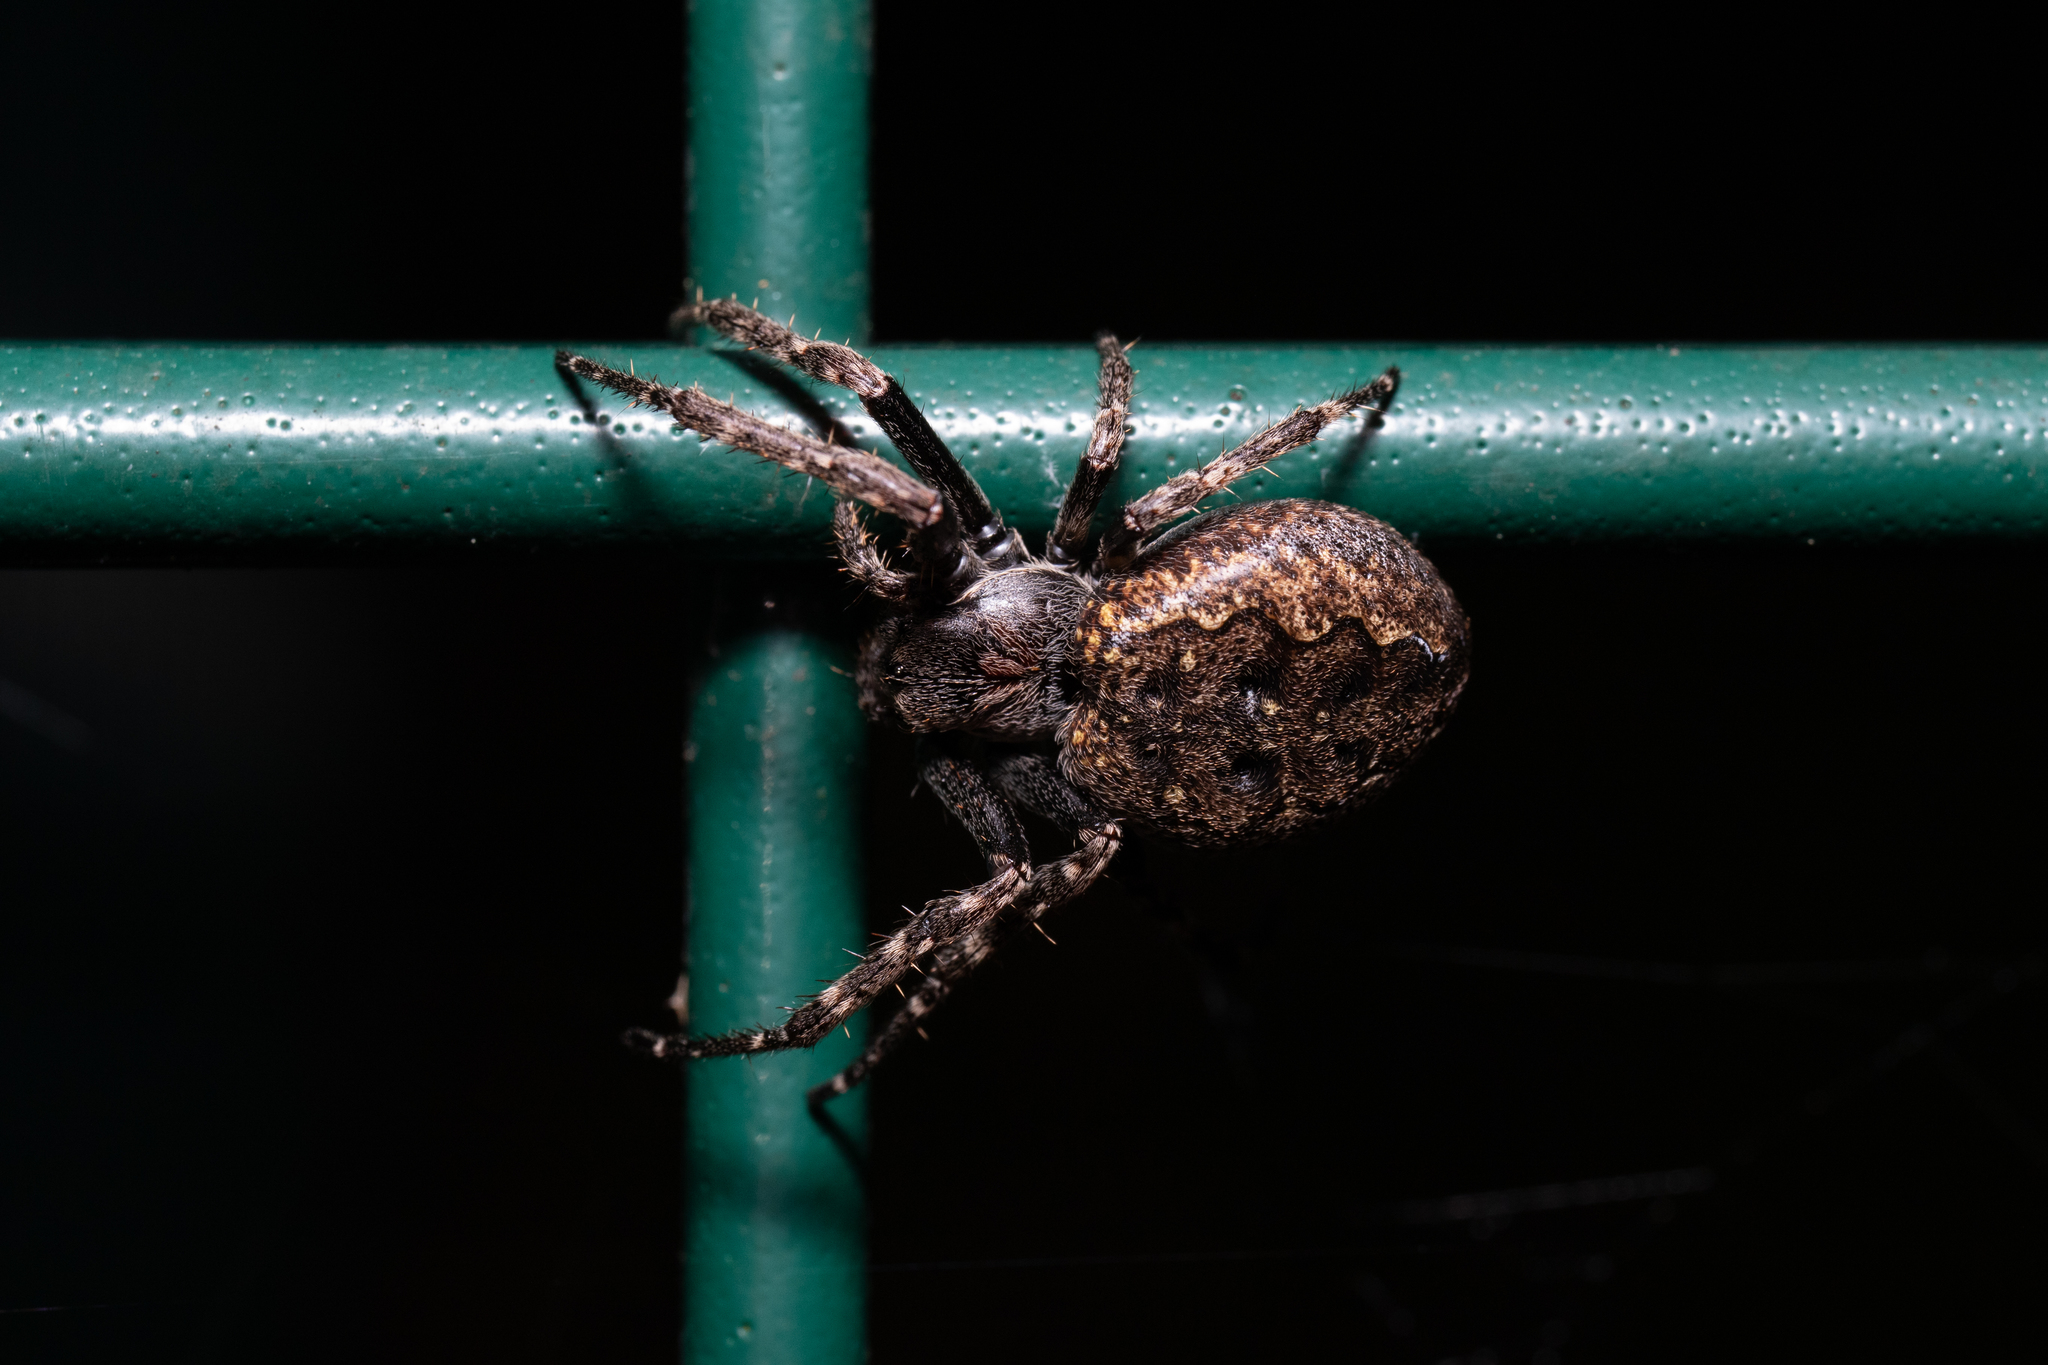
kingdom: Animalia
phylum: Arthropoda
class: Arachnida
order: Araneae
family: Araneidae
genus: Nuctenea
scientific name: Nuctenea umbratica
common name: Toad spider
